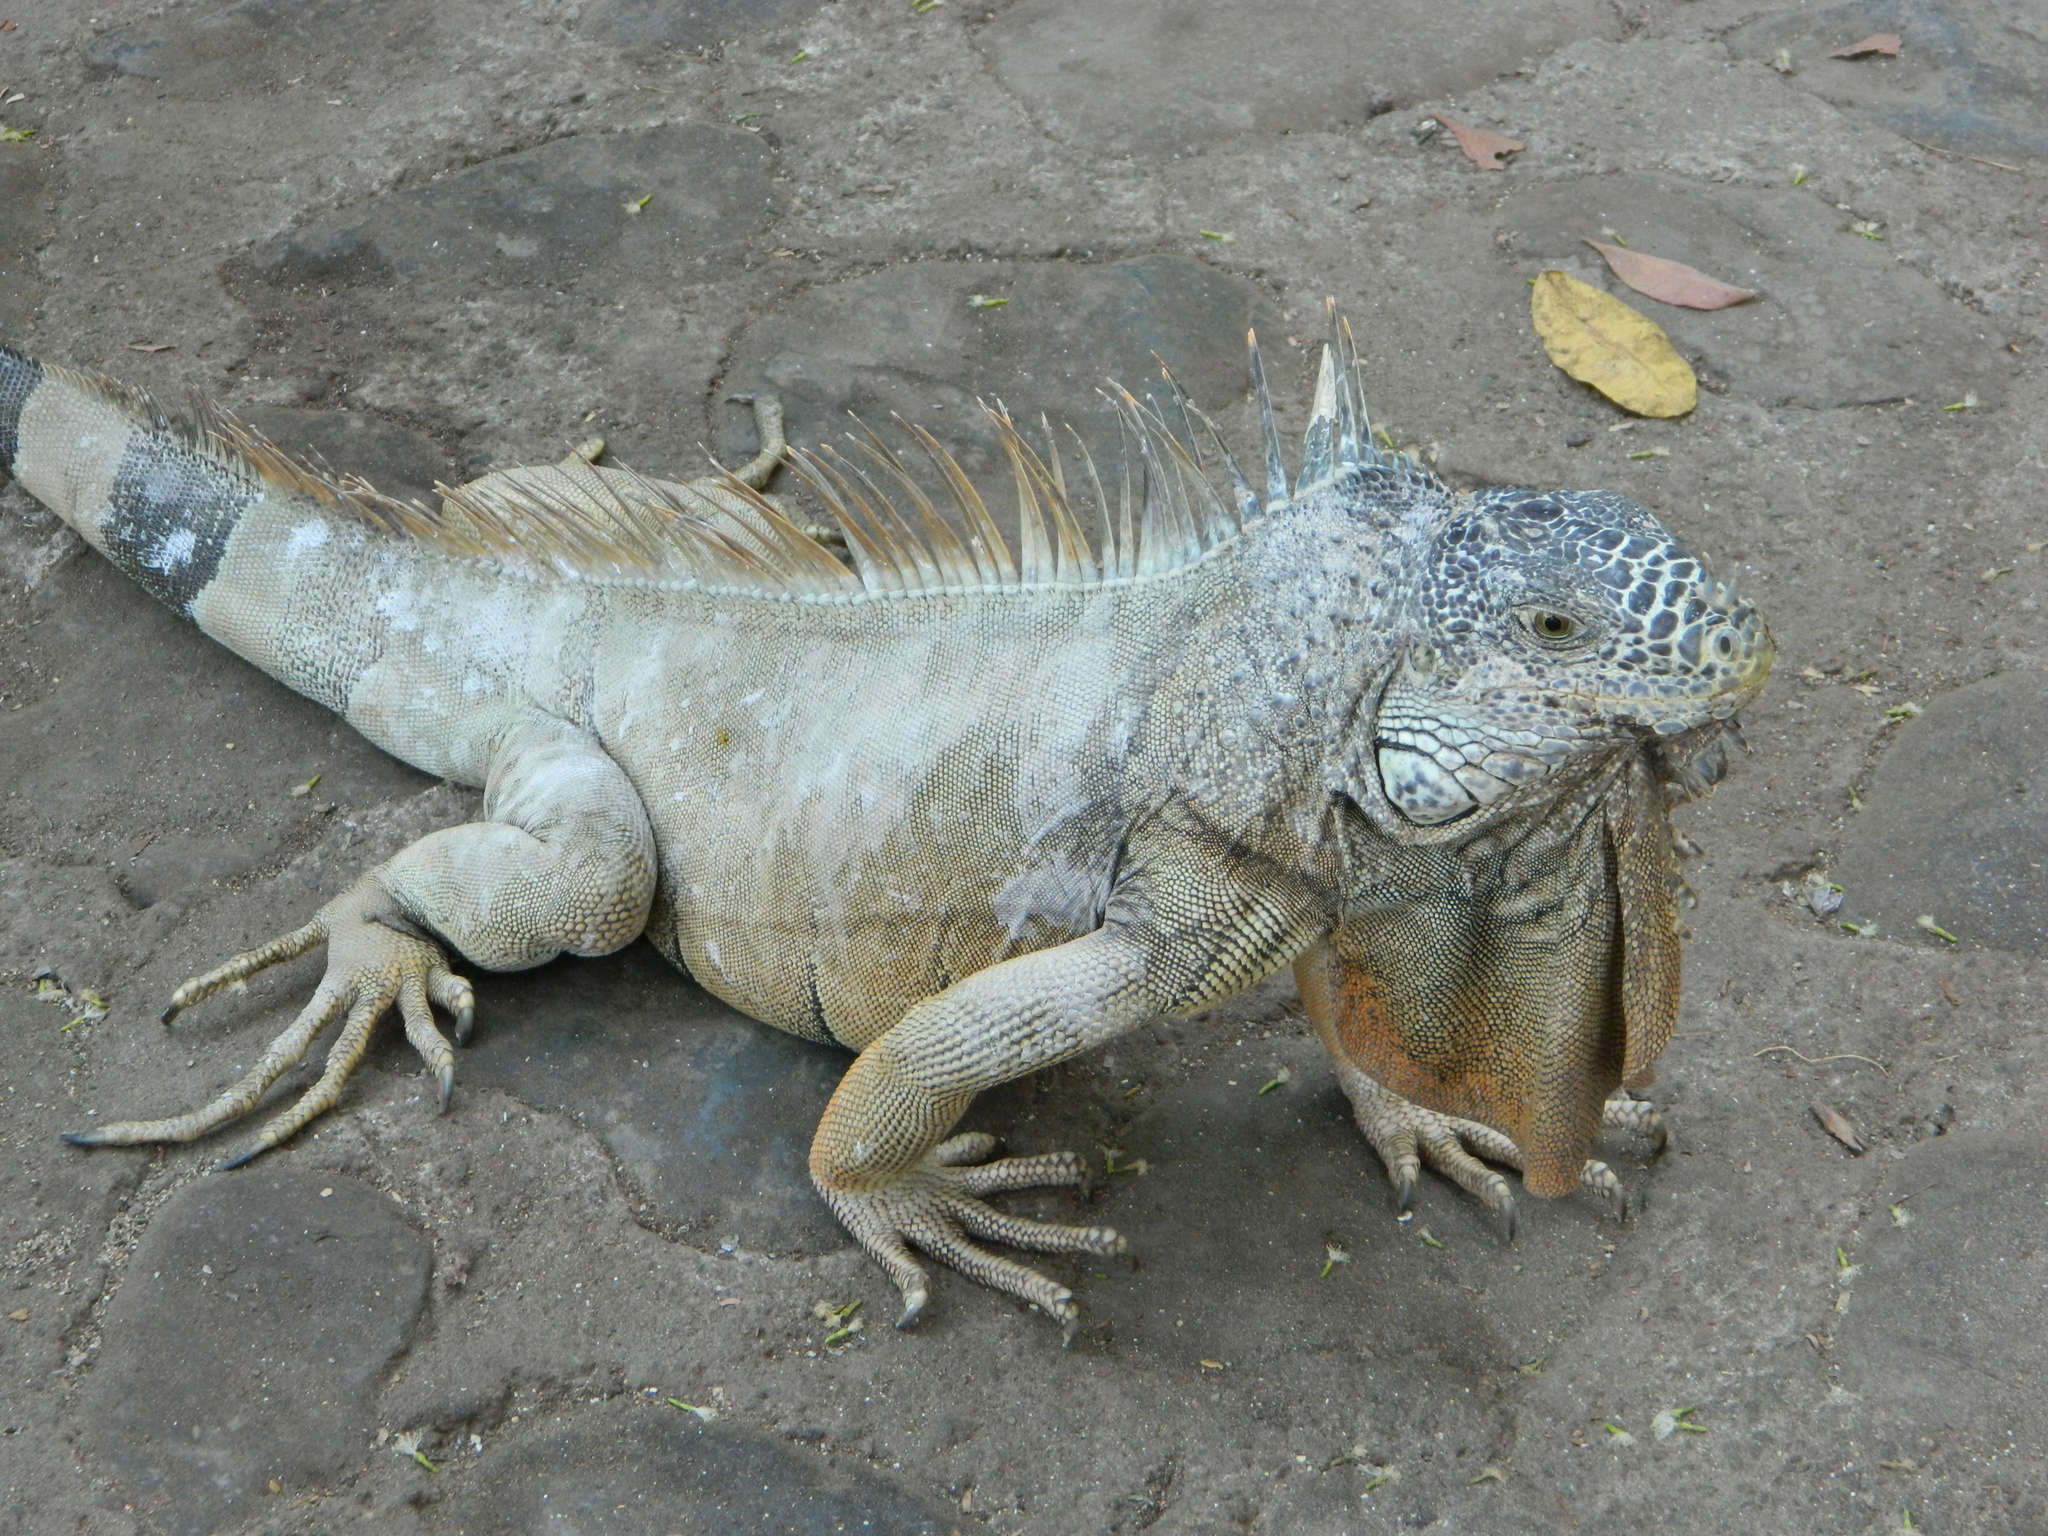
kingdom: Animalia
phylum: Chordata
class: Squamata
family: Iguanidae
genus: Iguana
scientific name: Iguana iguana
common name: Green iguana
